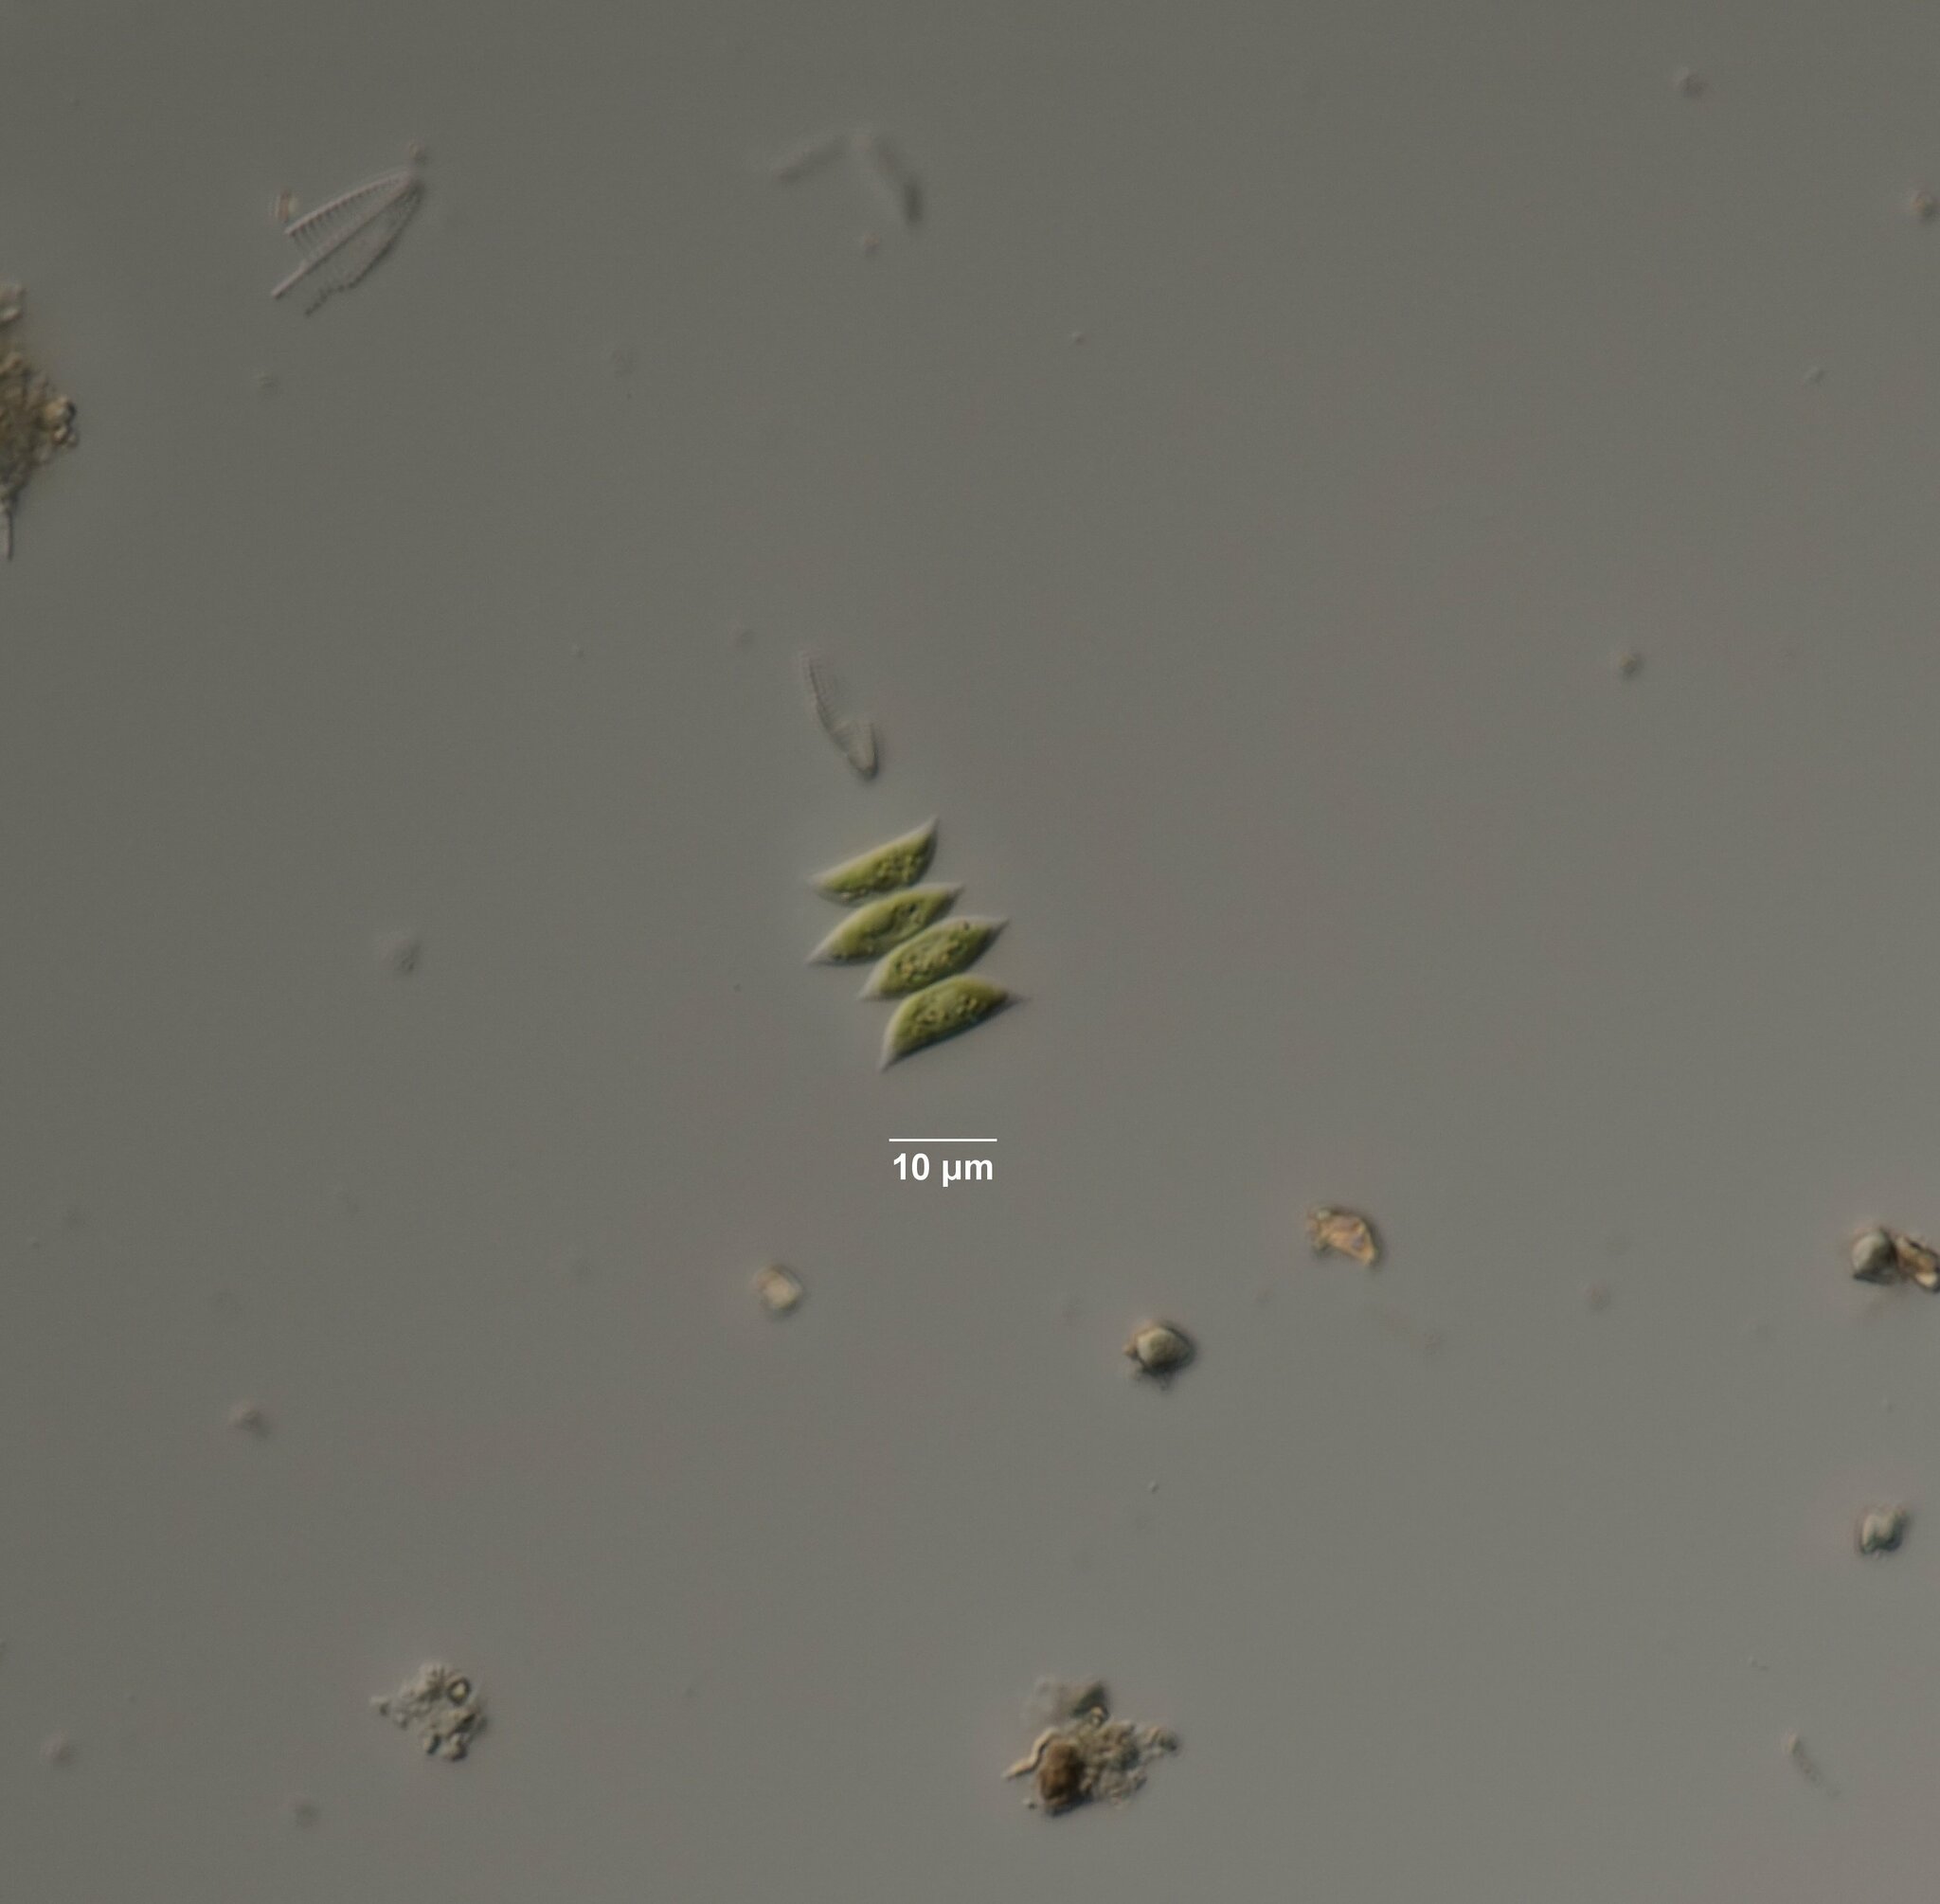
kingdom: Plantae
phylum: Chlorophyta
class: Chlorophyceae
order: Sphaeropleales
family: Scenedesmaceae
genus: Tetradesmus
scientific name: Tetradesmus obliquus
